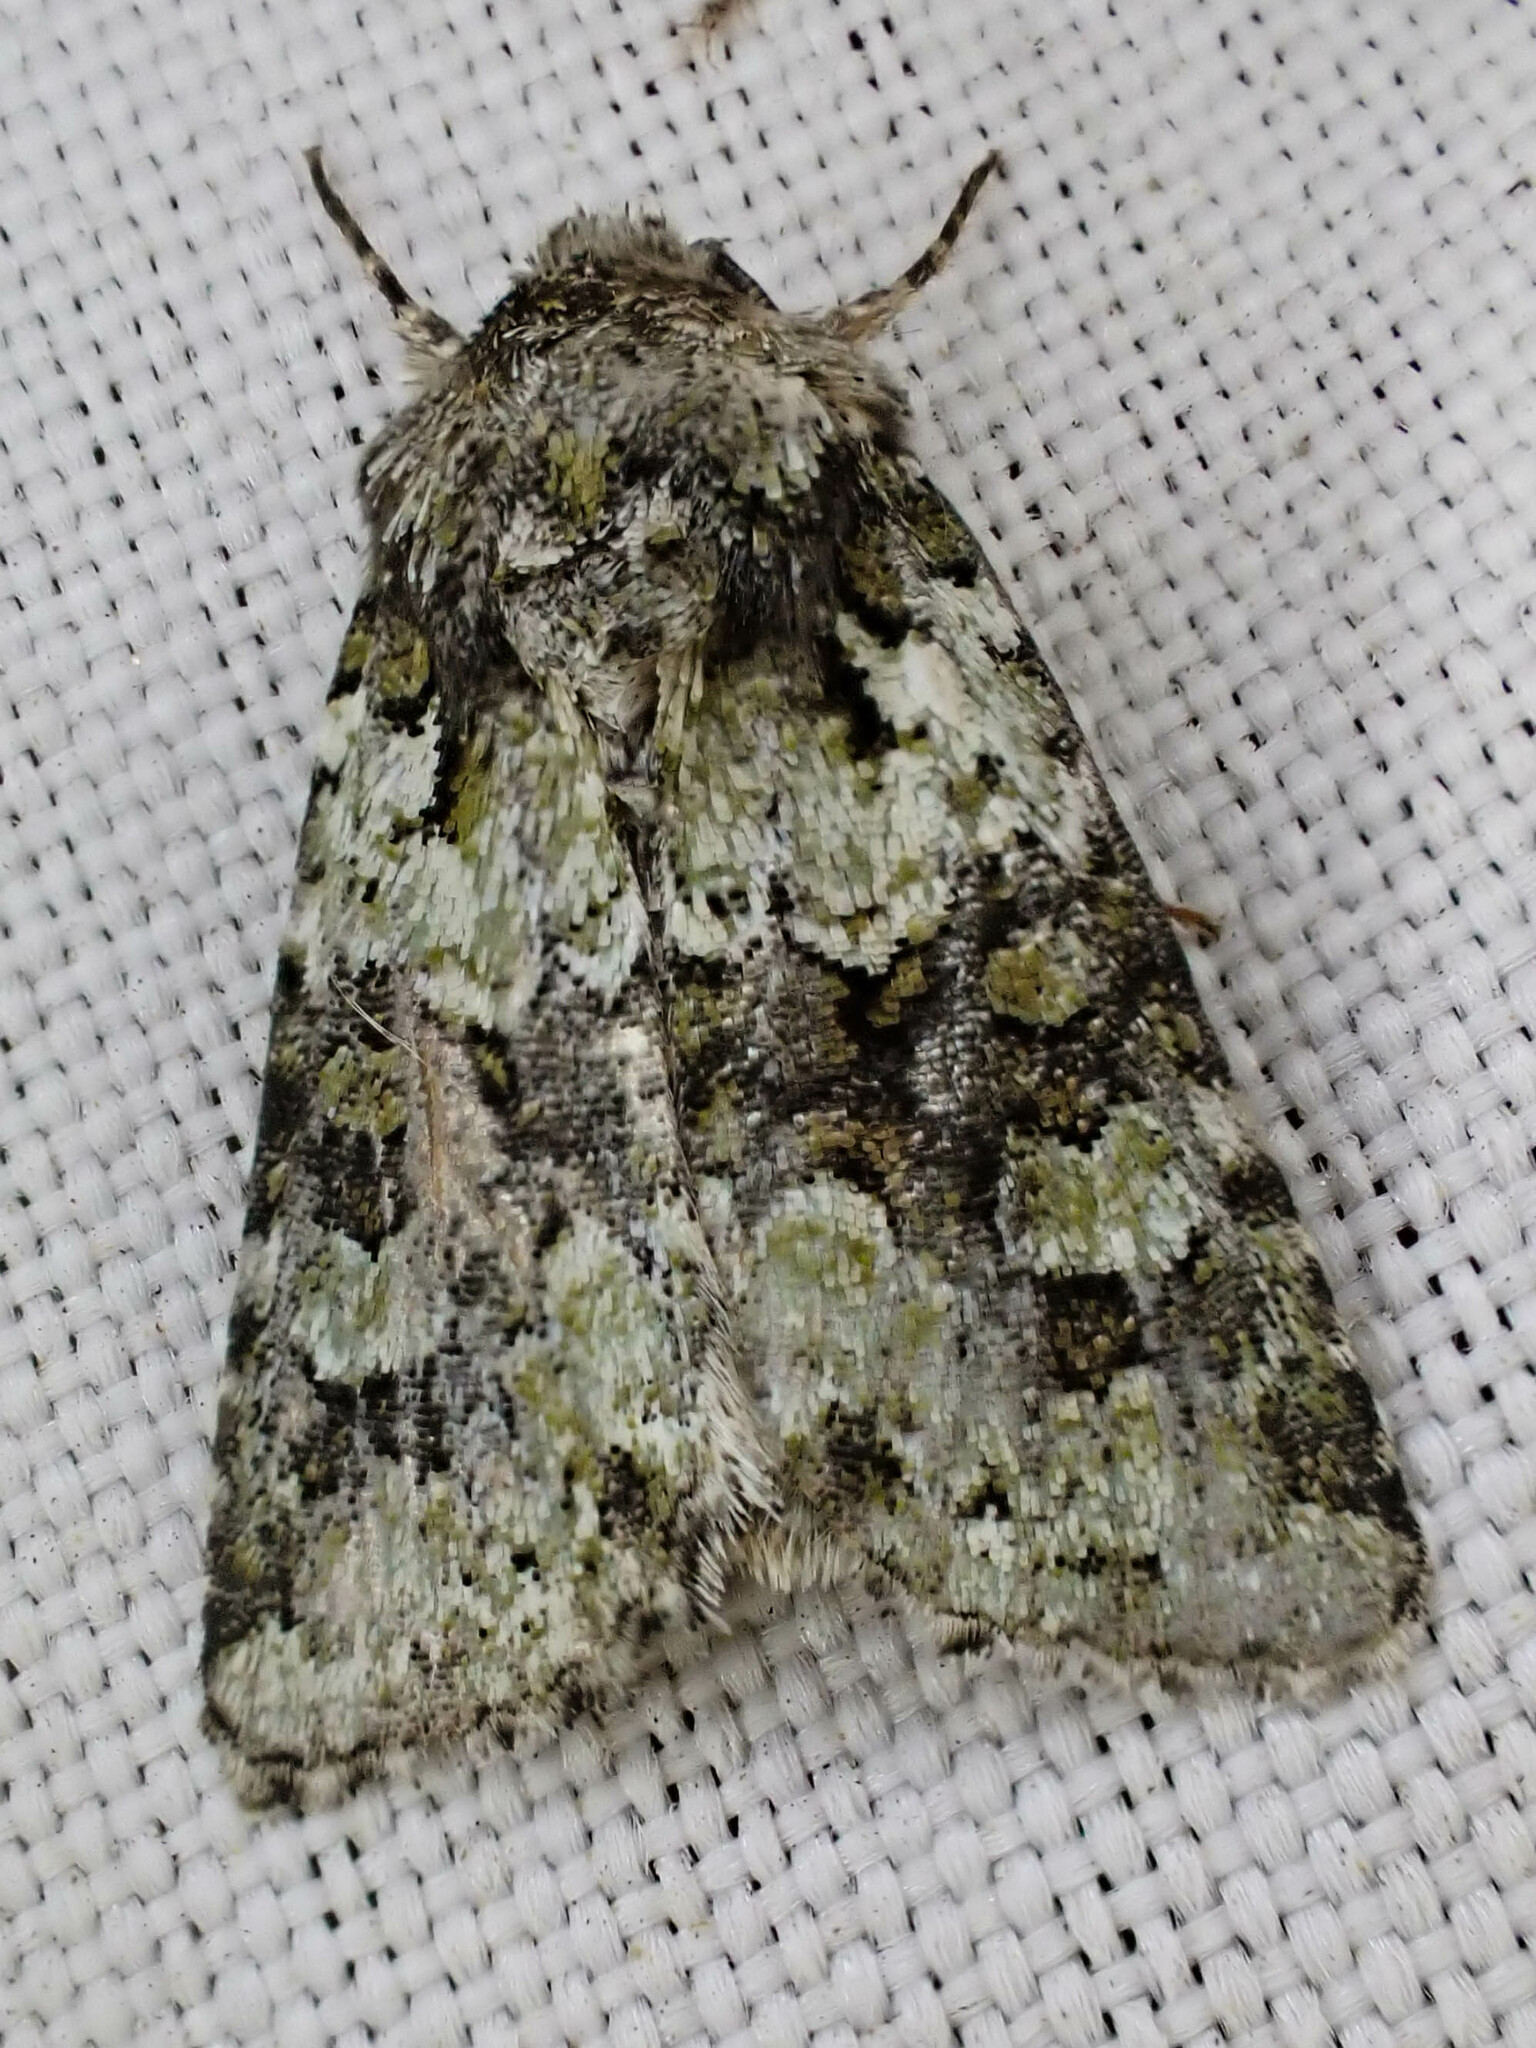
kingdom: Animalia
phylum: Arthropoda
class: Insecta
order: Lepidoptera
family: Noctuidae
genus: Lacinipolia
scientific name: Lacinipolia strigicollis
